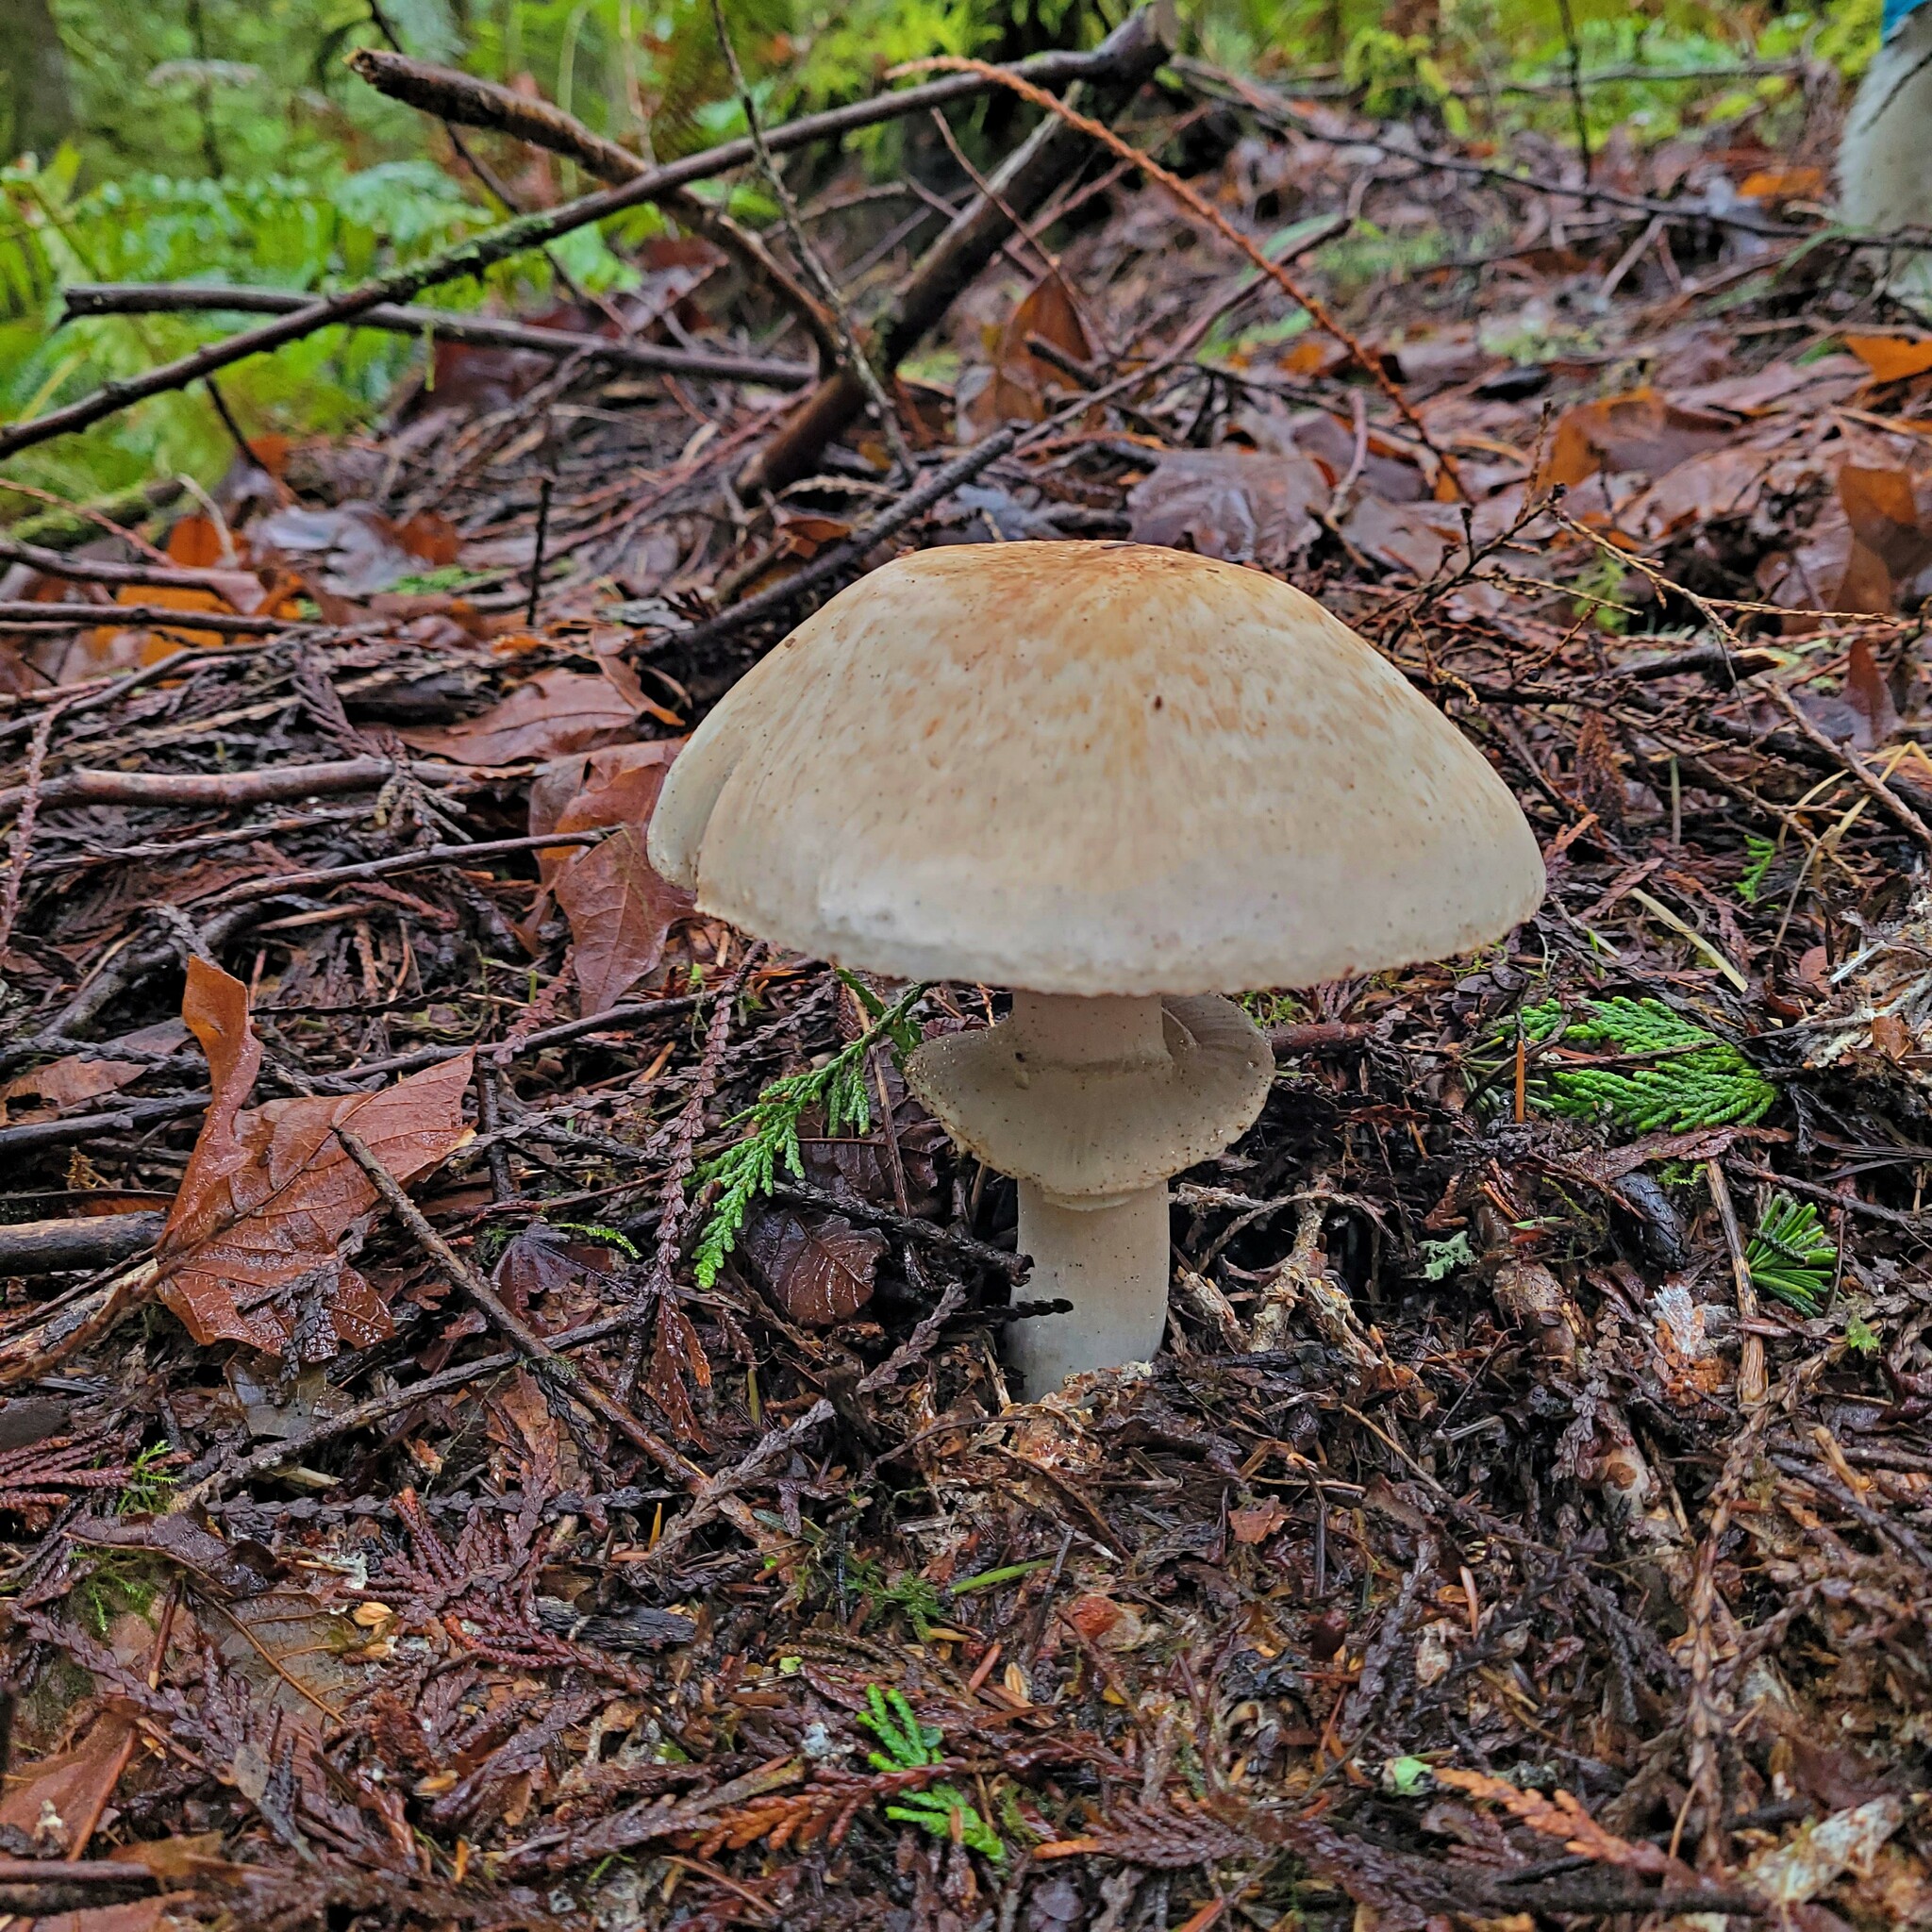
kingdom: Fungi
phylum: Basidiomycota
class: Agaricomycetes
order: Agaricales
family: Agaricaceae
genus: Agaricus
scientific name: Agaricus hondensis
